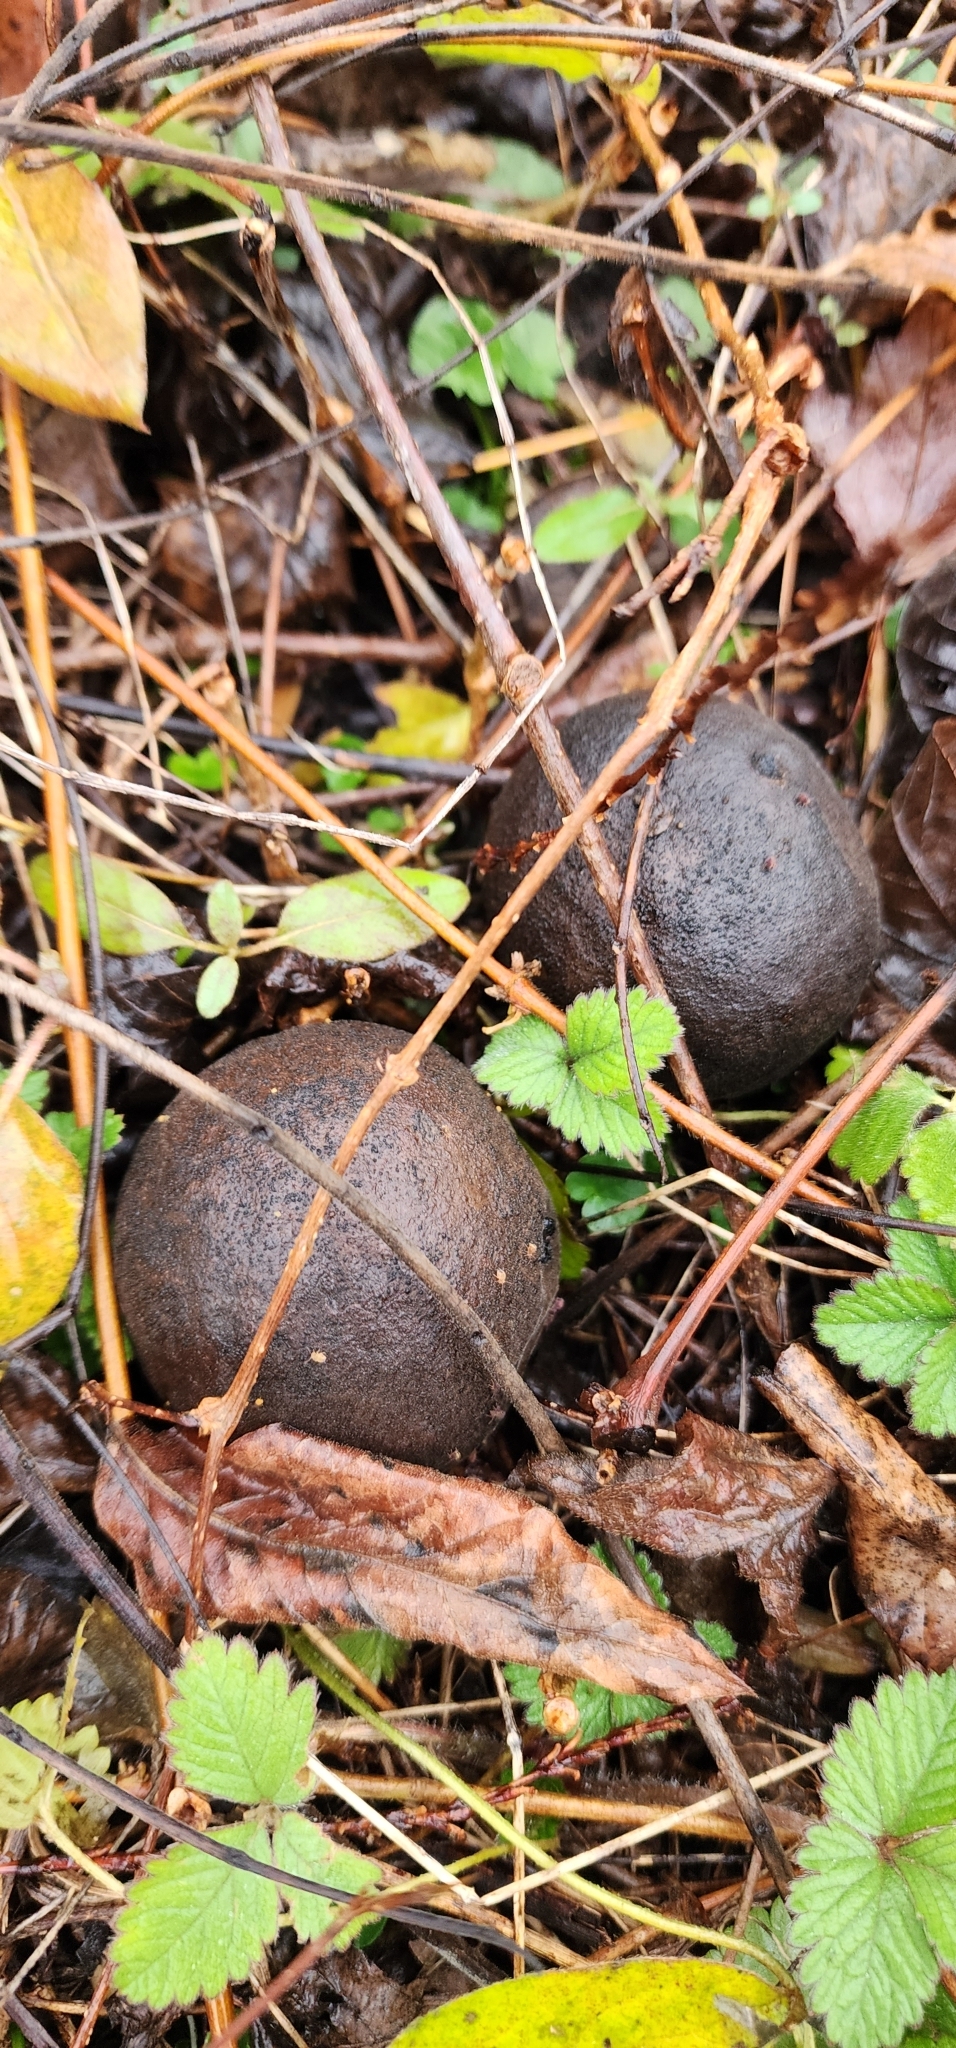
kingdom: Plantae
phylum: Tracheophyta
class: Magnoliopsida
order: Fagales
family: Juglandaceae
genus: Juglans
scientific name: Juglans nigra
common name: Black walnut
